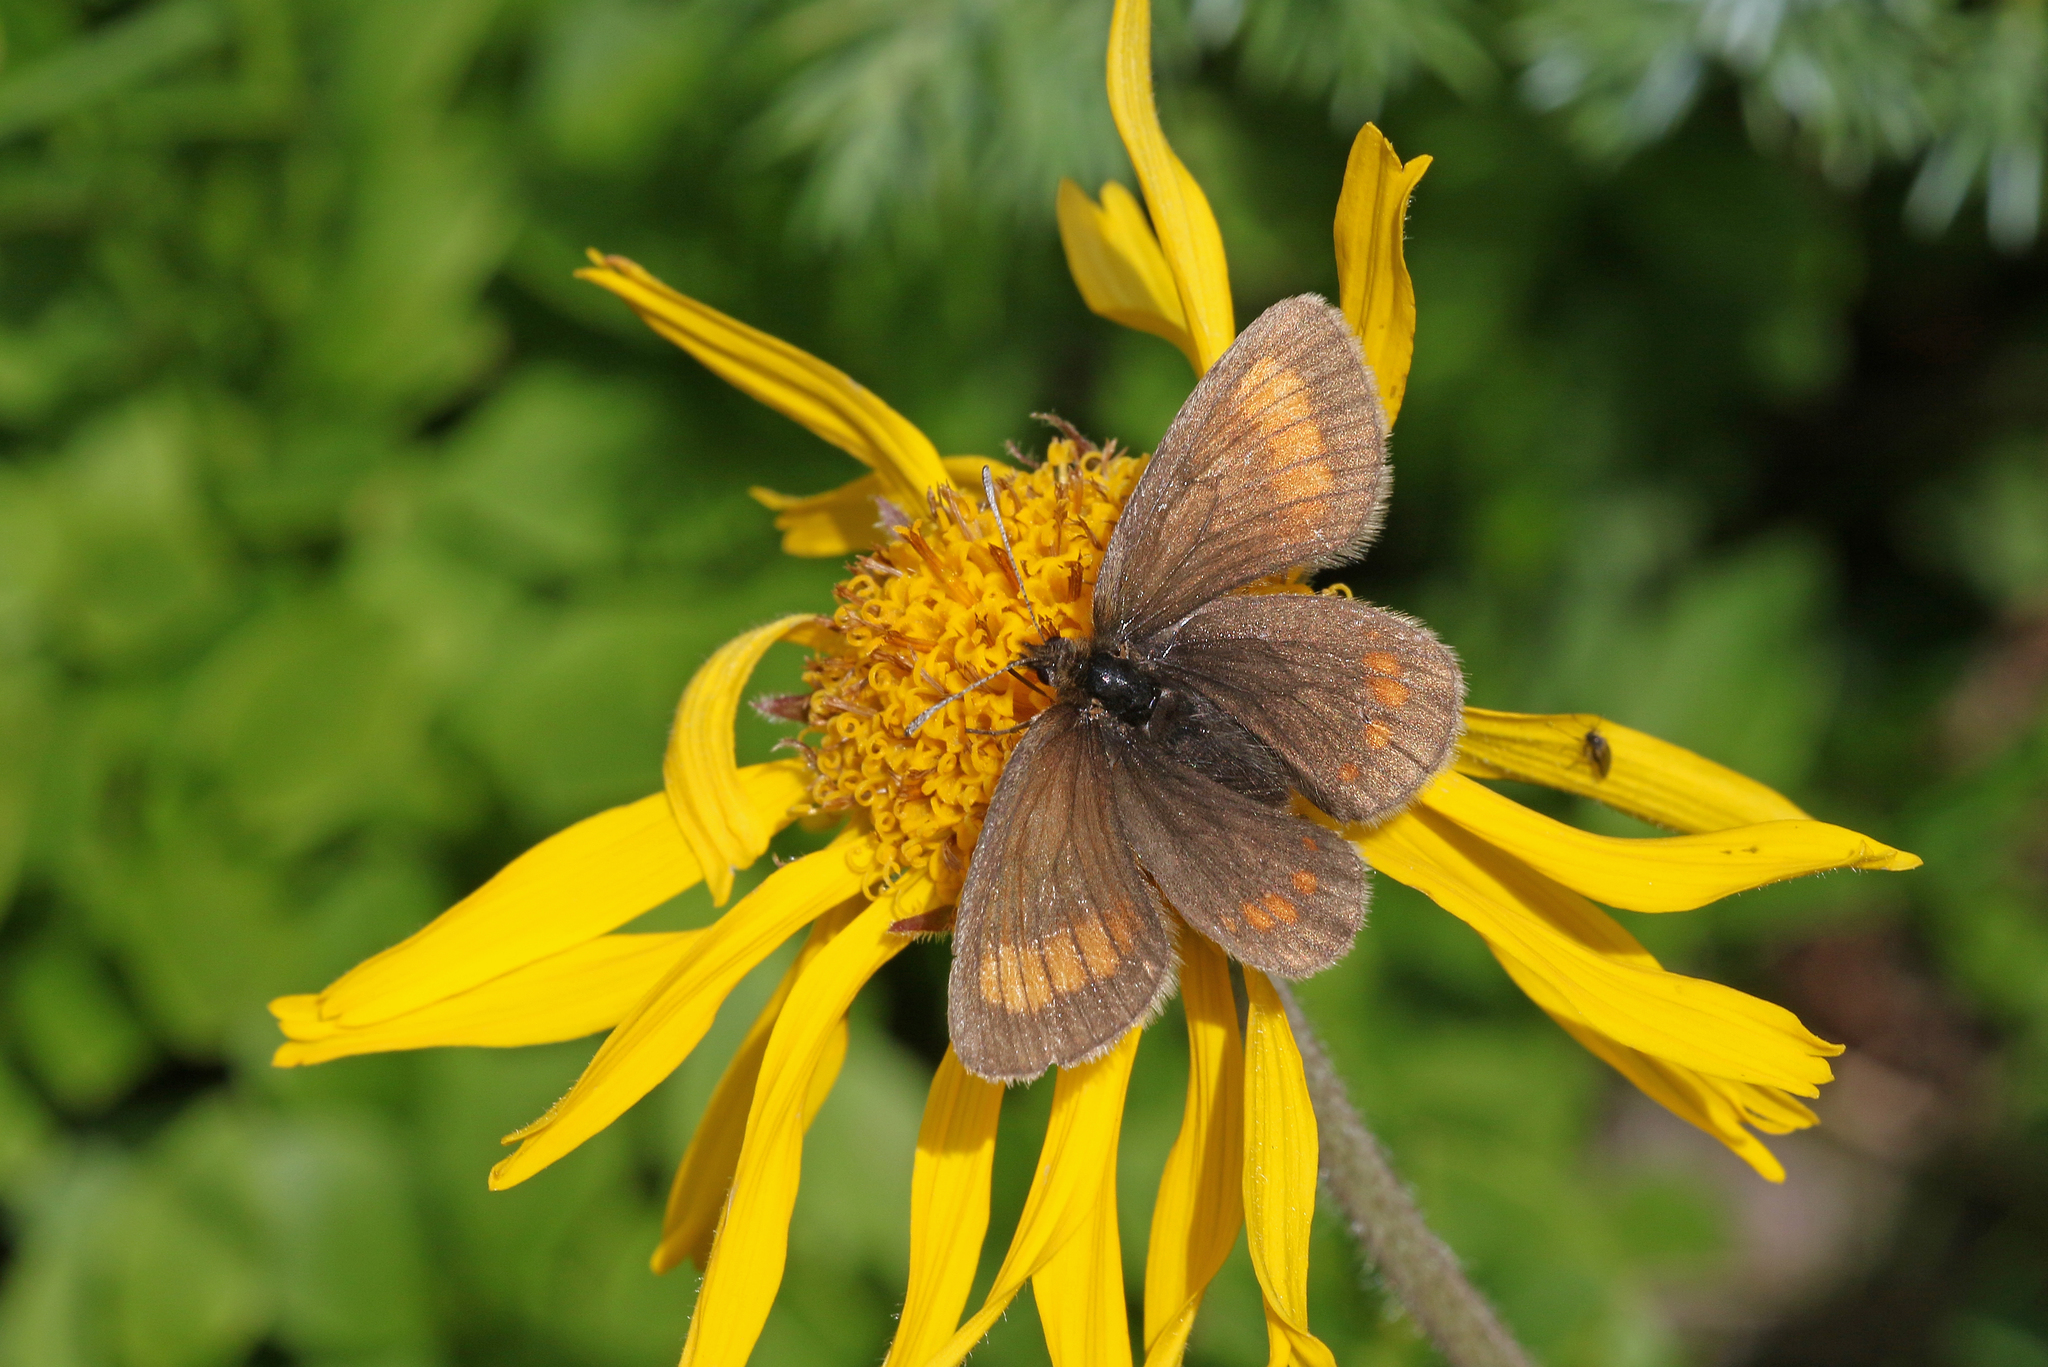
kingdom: Animalia
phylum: Arthropoda
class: Insecta
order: Lepidoptera
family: Nymphalidae
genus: Erebia
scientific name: Erebia pharte
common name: Blind ringlet
